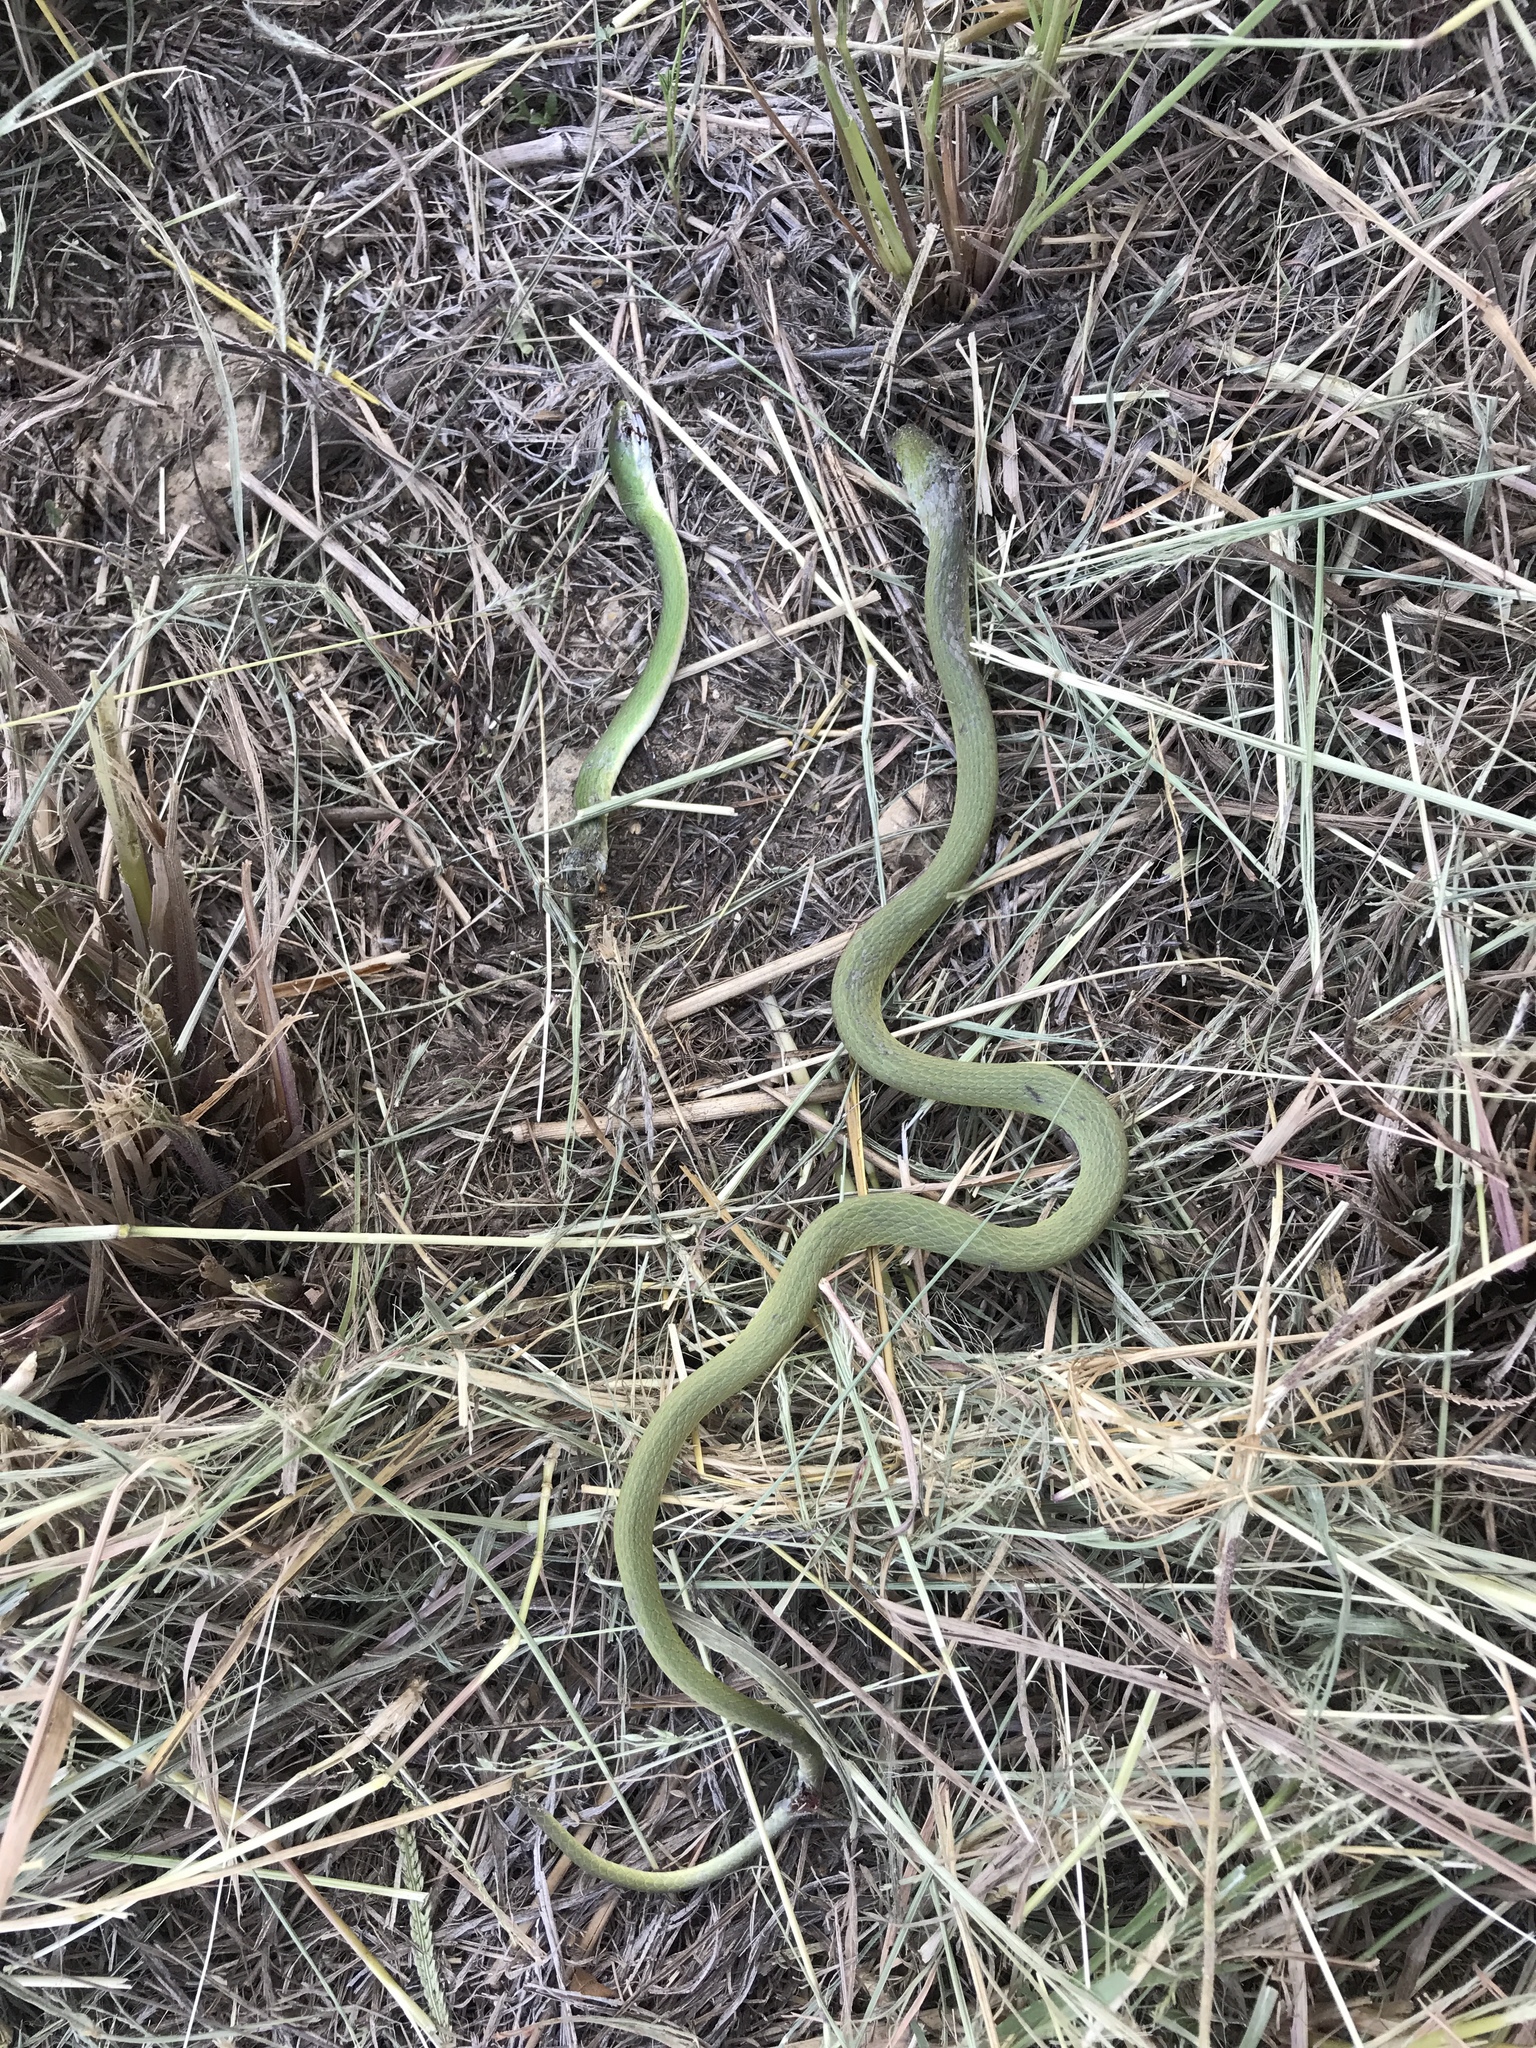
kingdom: Animalia
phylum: Chordata
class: Squamata
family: Colubridae
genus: Opheodrys
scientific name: Opheodrys aestivus
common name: Rough greensnake
